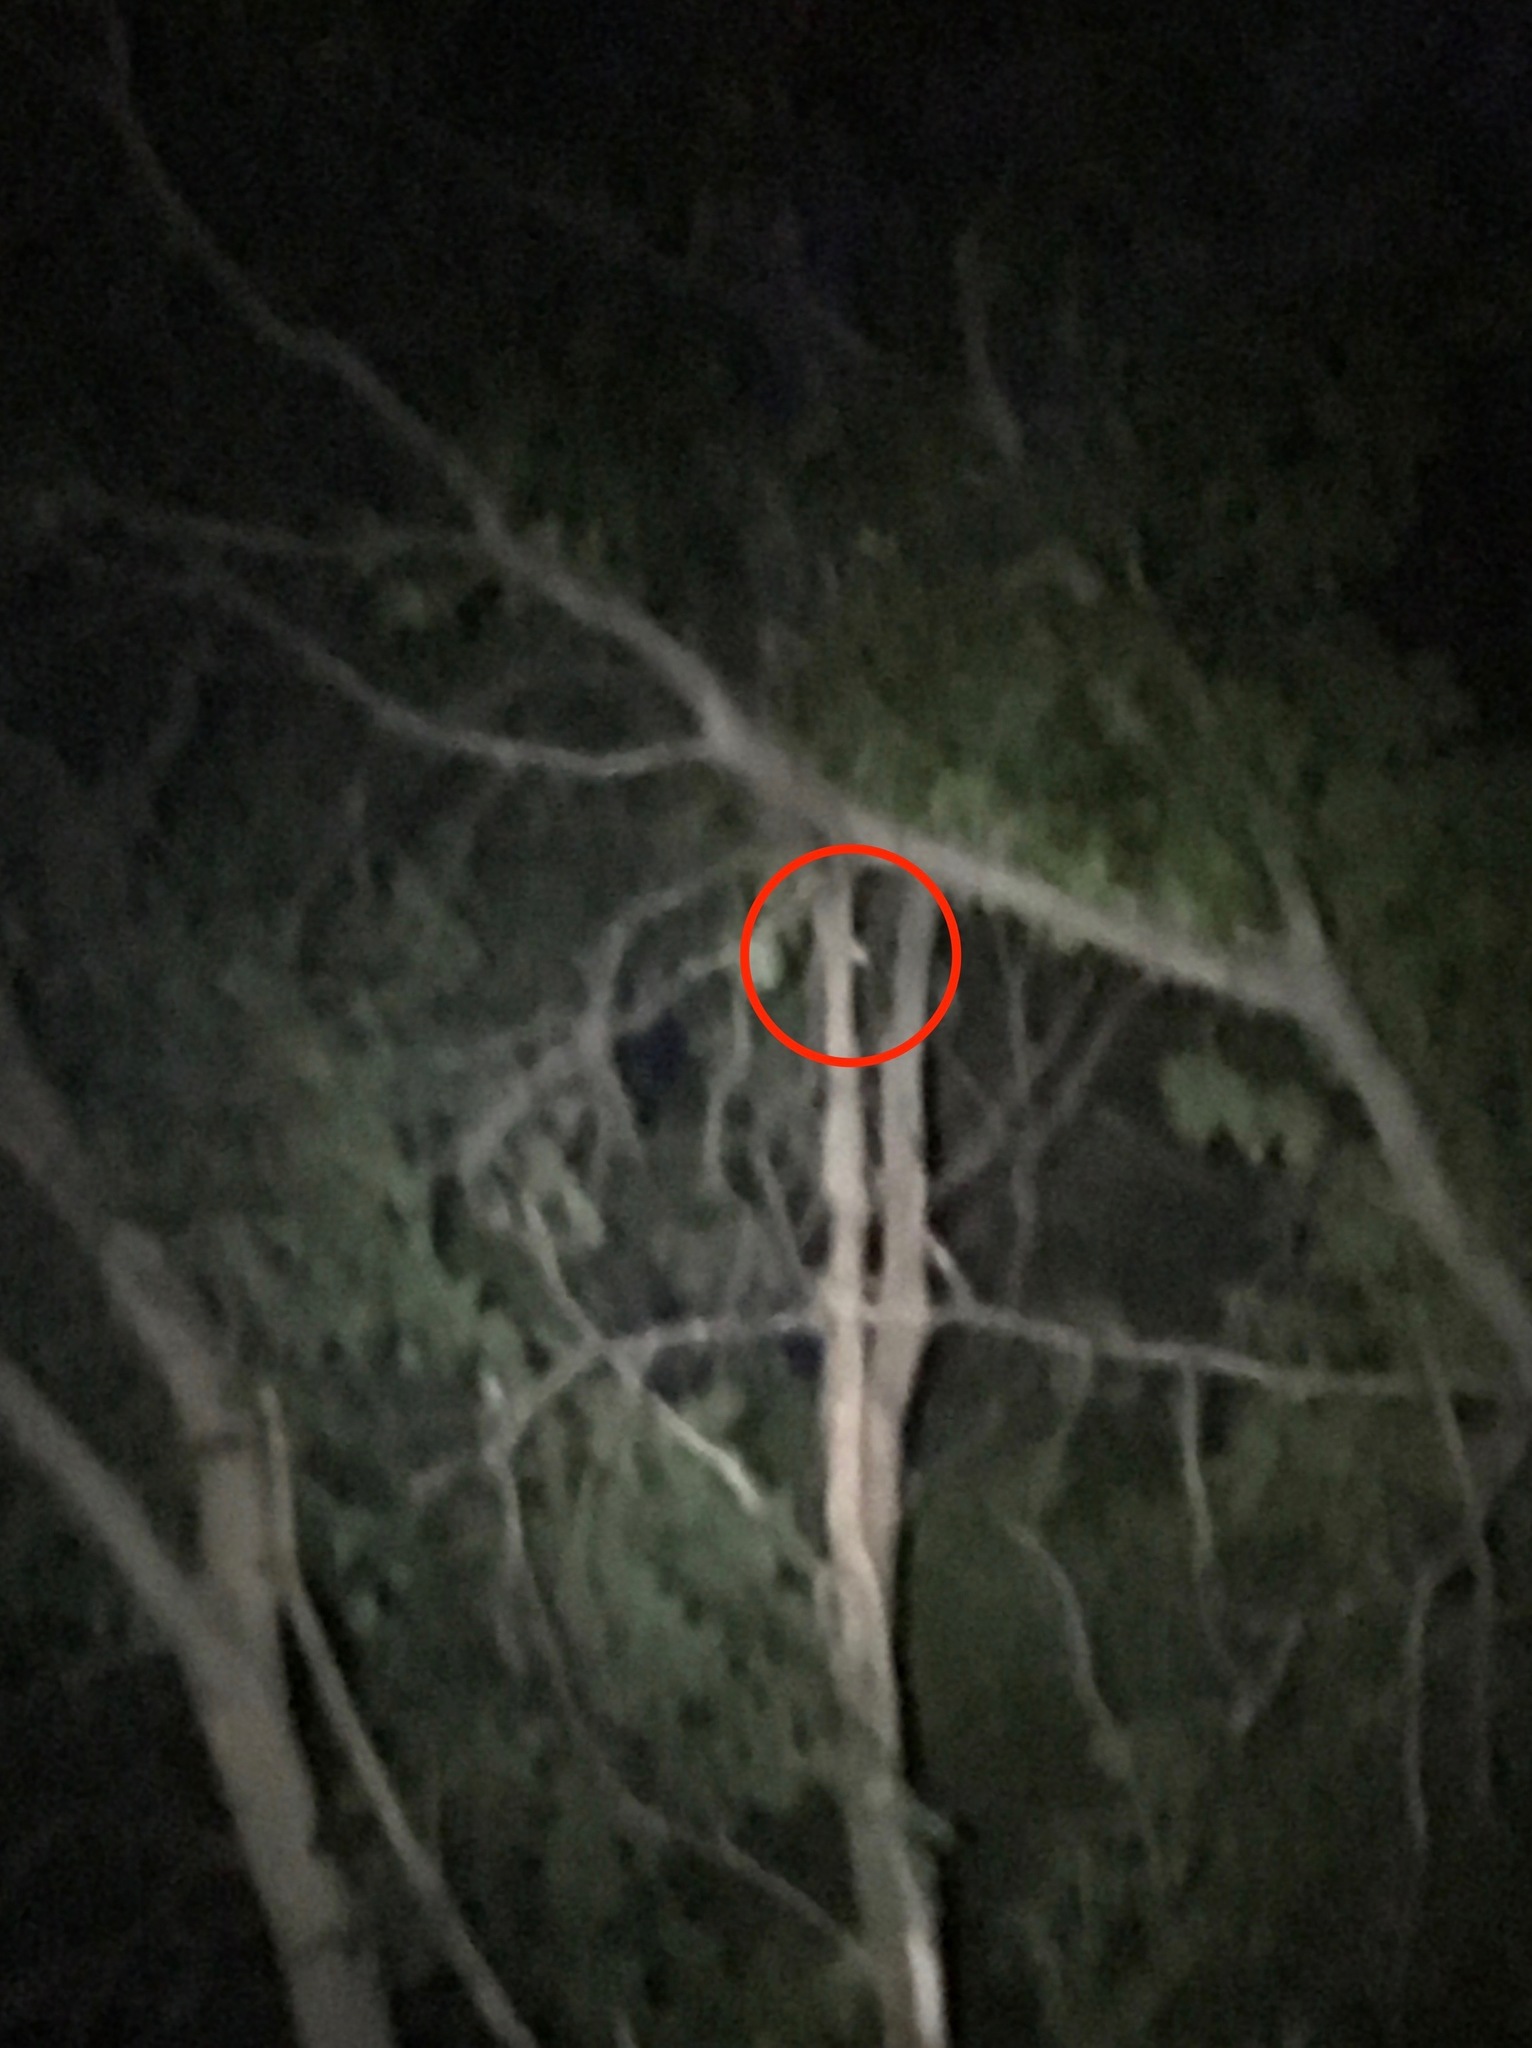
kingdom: Animalia
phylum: Chordata
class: Mammalia
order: Rodentia
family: Sciuridae
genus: Glaucomys
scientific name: Glaucomys volans
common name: Southern flying squirrel
